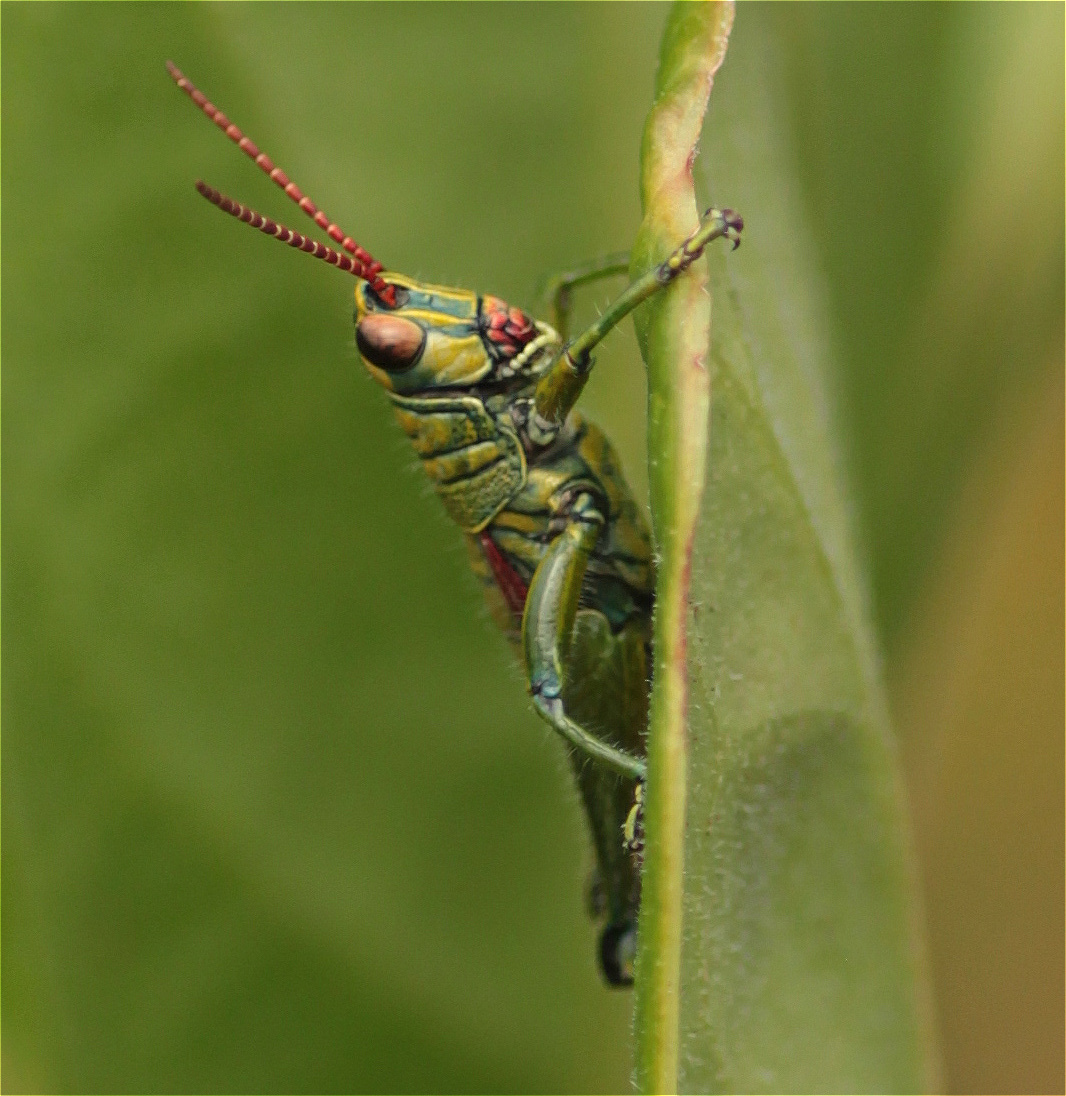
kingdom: Animalia
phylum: Arthropoda
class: Insecta
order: Orthoptera
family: Acrididae
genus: Agesander
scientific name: Agesander ruficornis
